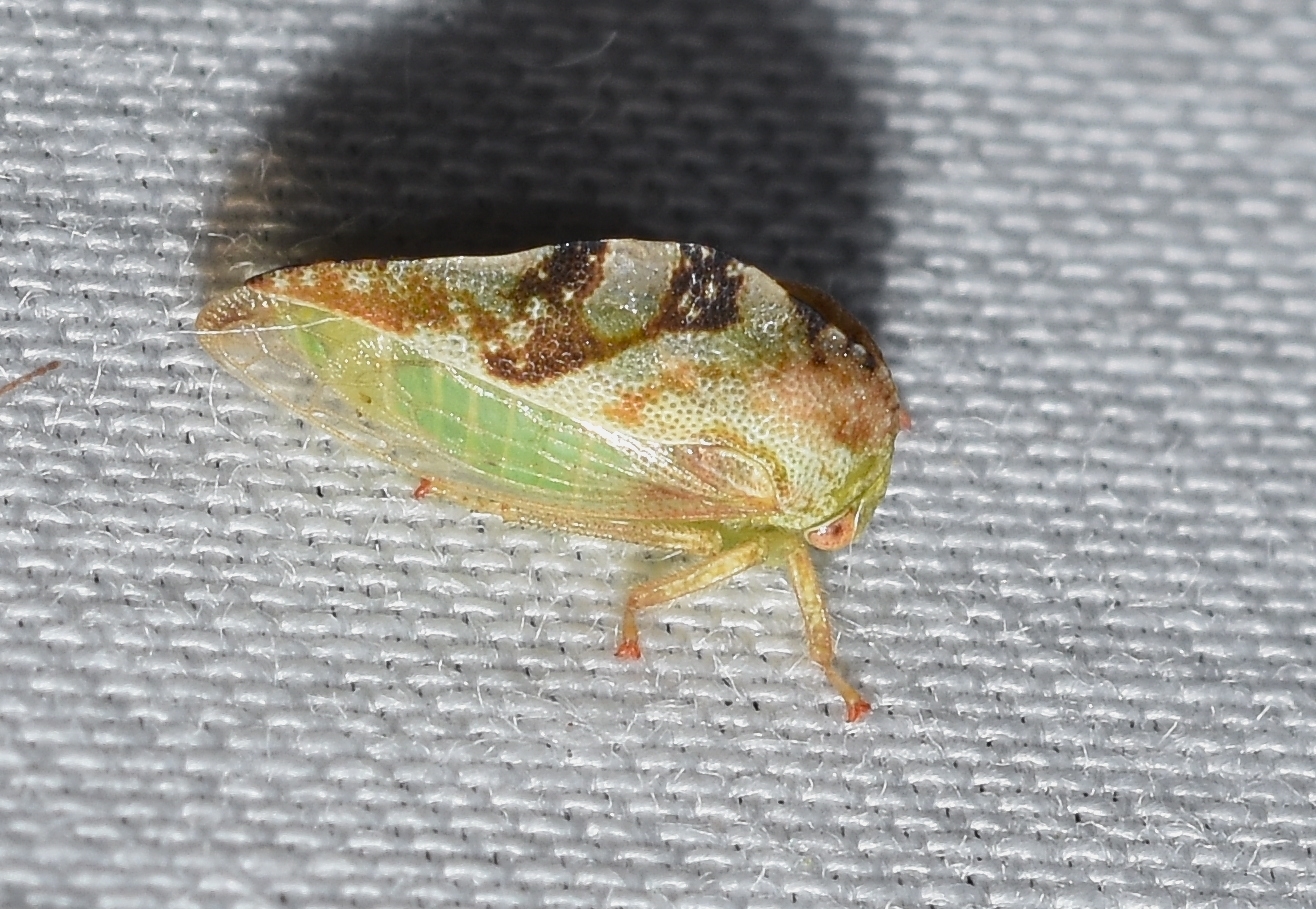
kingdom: Animalia
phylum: Arthropoda
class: Insecta
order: Hemiptera
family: Membracidae
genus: Cyrtolobus
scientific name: Cyrtolobus fenestrata
